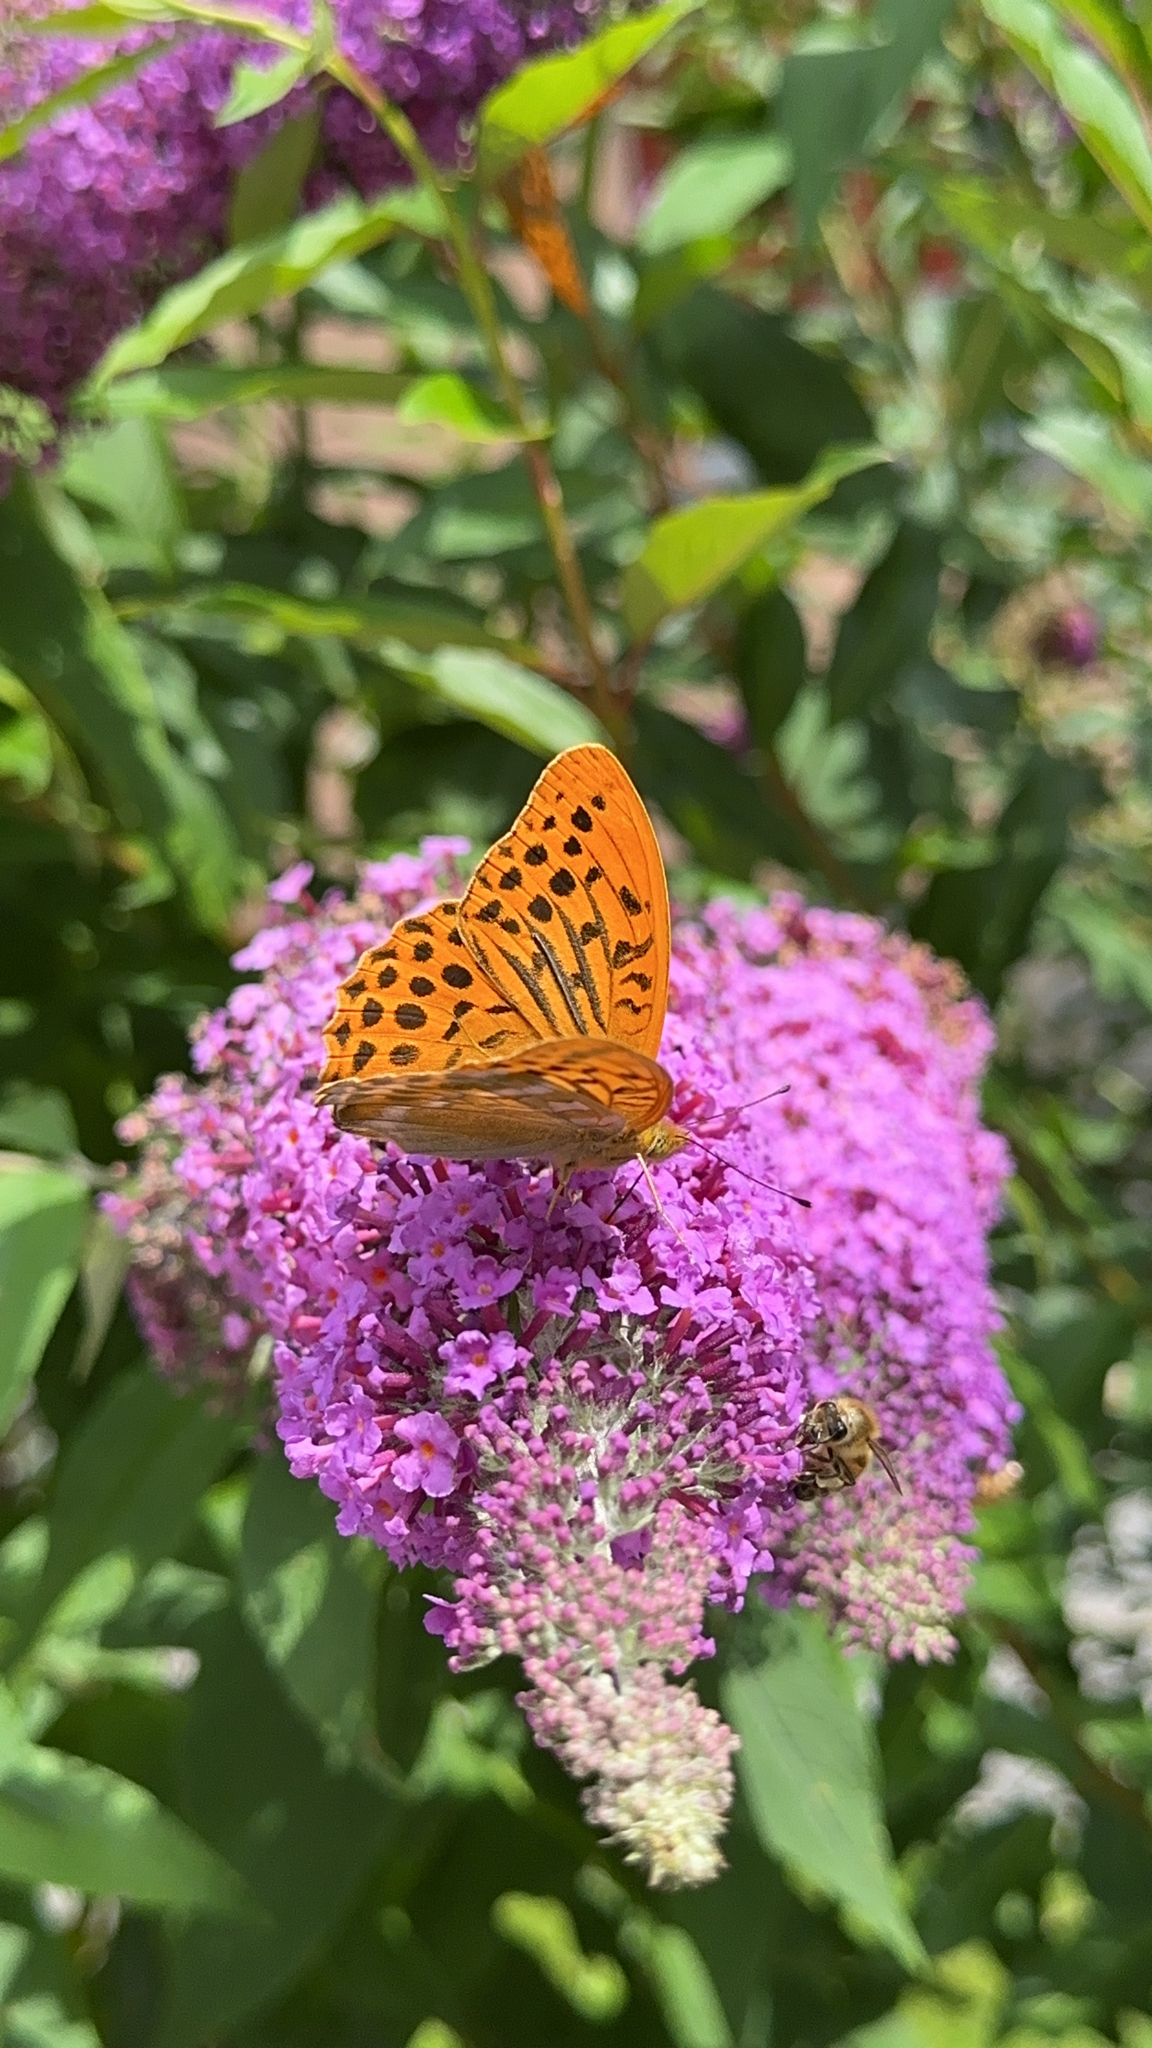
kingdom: Animalia
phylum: Arthropoda
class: Insecta
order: Lepidoptera
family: Nymphalidae
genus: Argynnis
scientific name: Argynnis paphia
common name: Silver-washed fritillary
